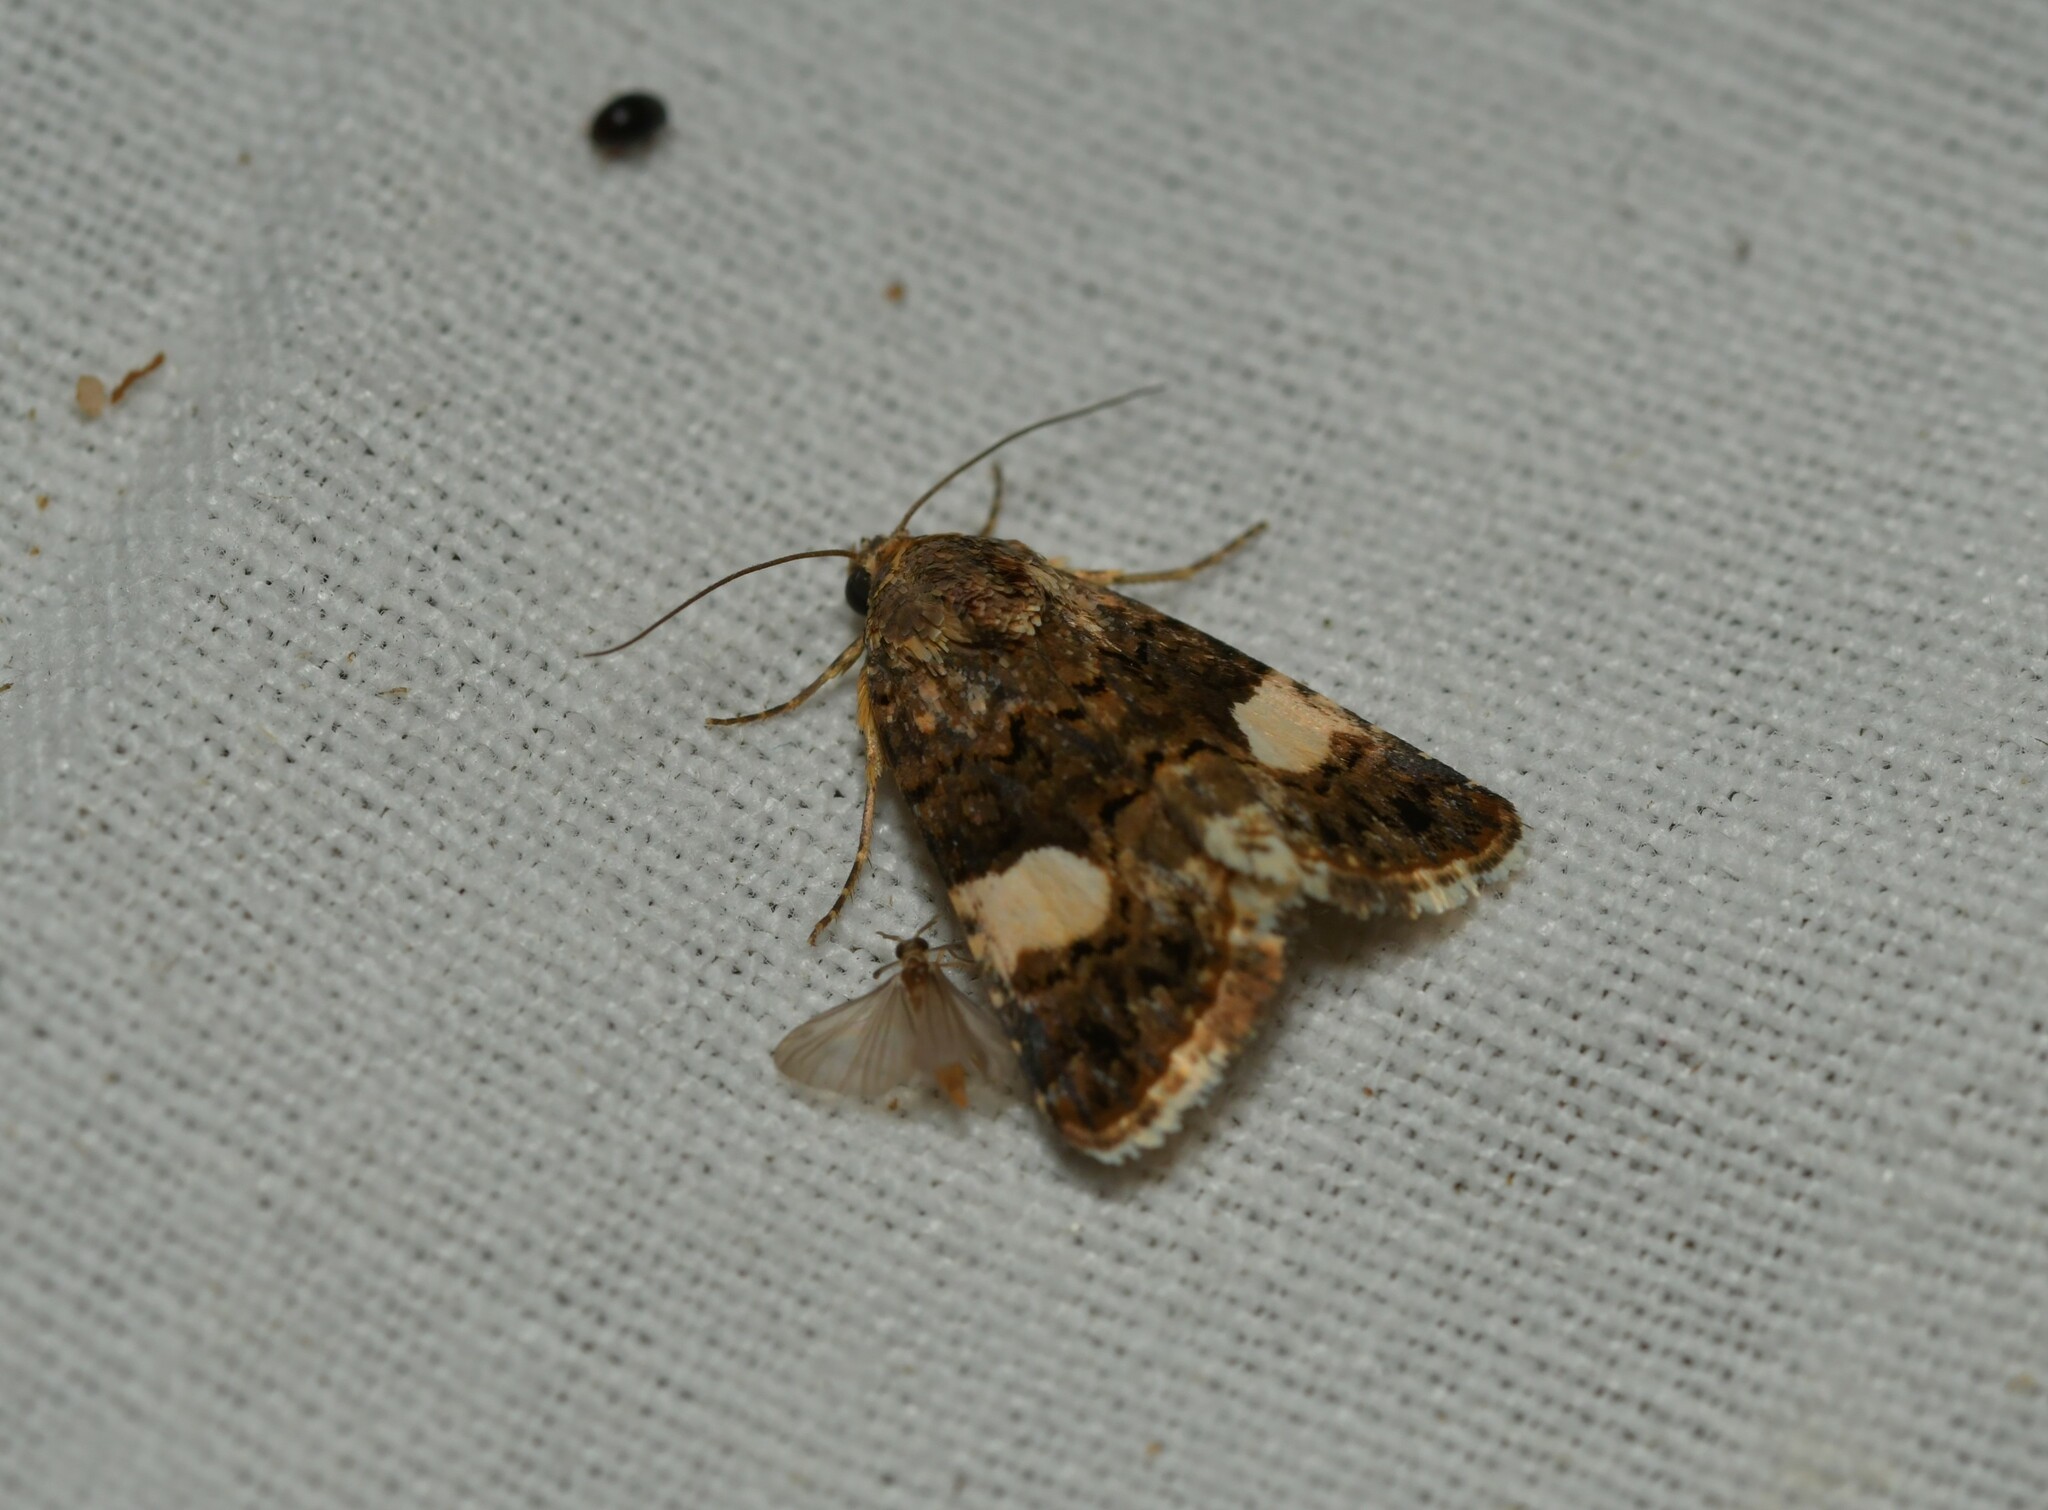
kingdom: Animalia
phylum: Arthropoda
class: Insecta
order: Lepidoptera
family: Erebidae
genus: Tyta
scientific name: Tyta luctuosa
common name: Four-spotted
